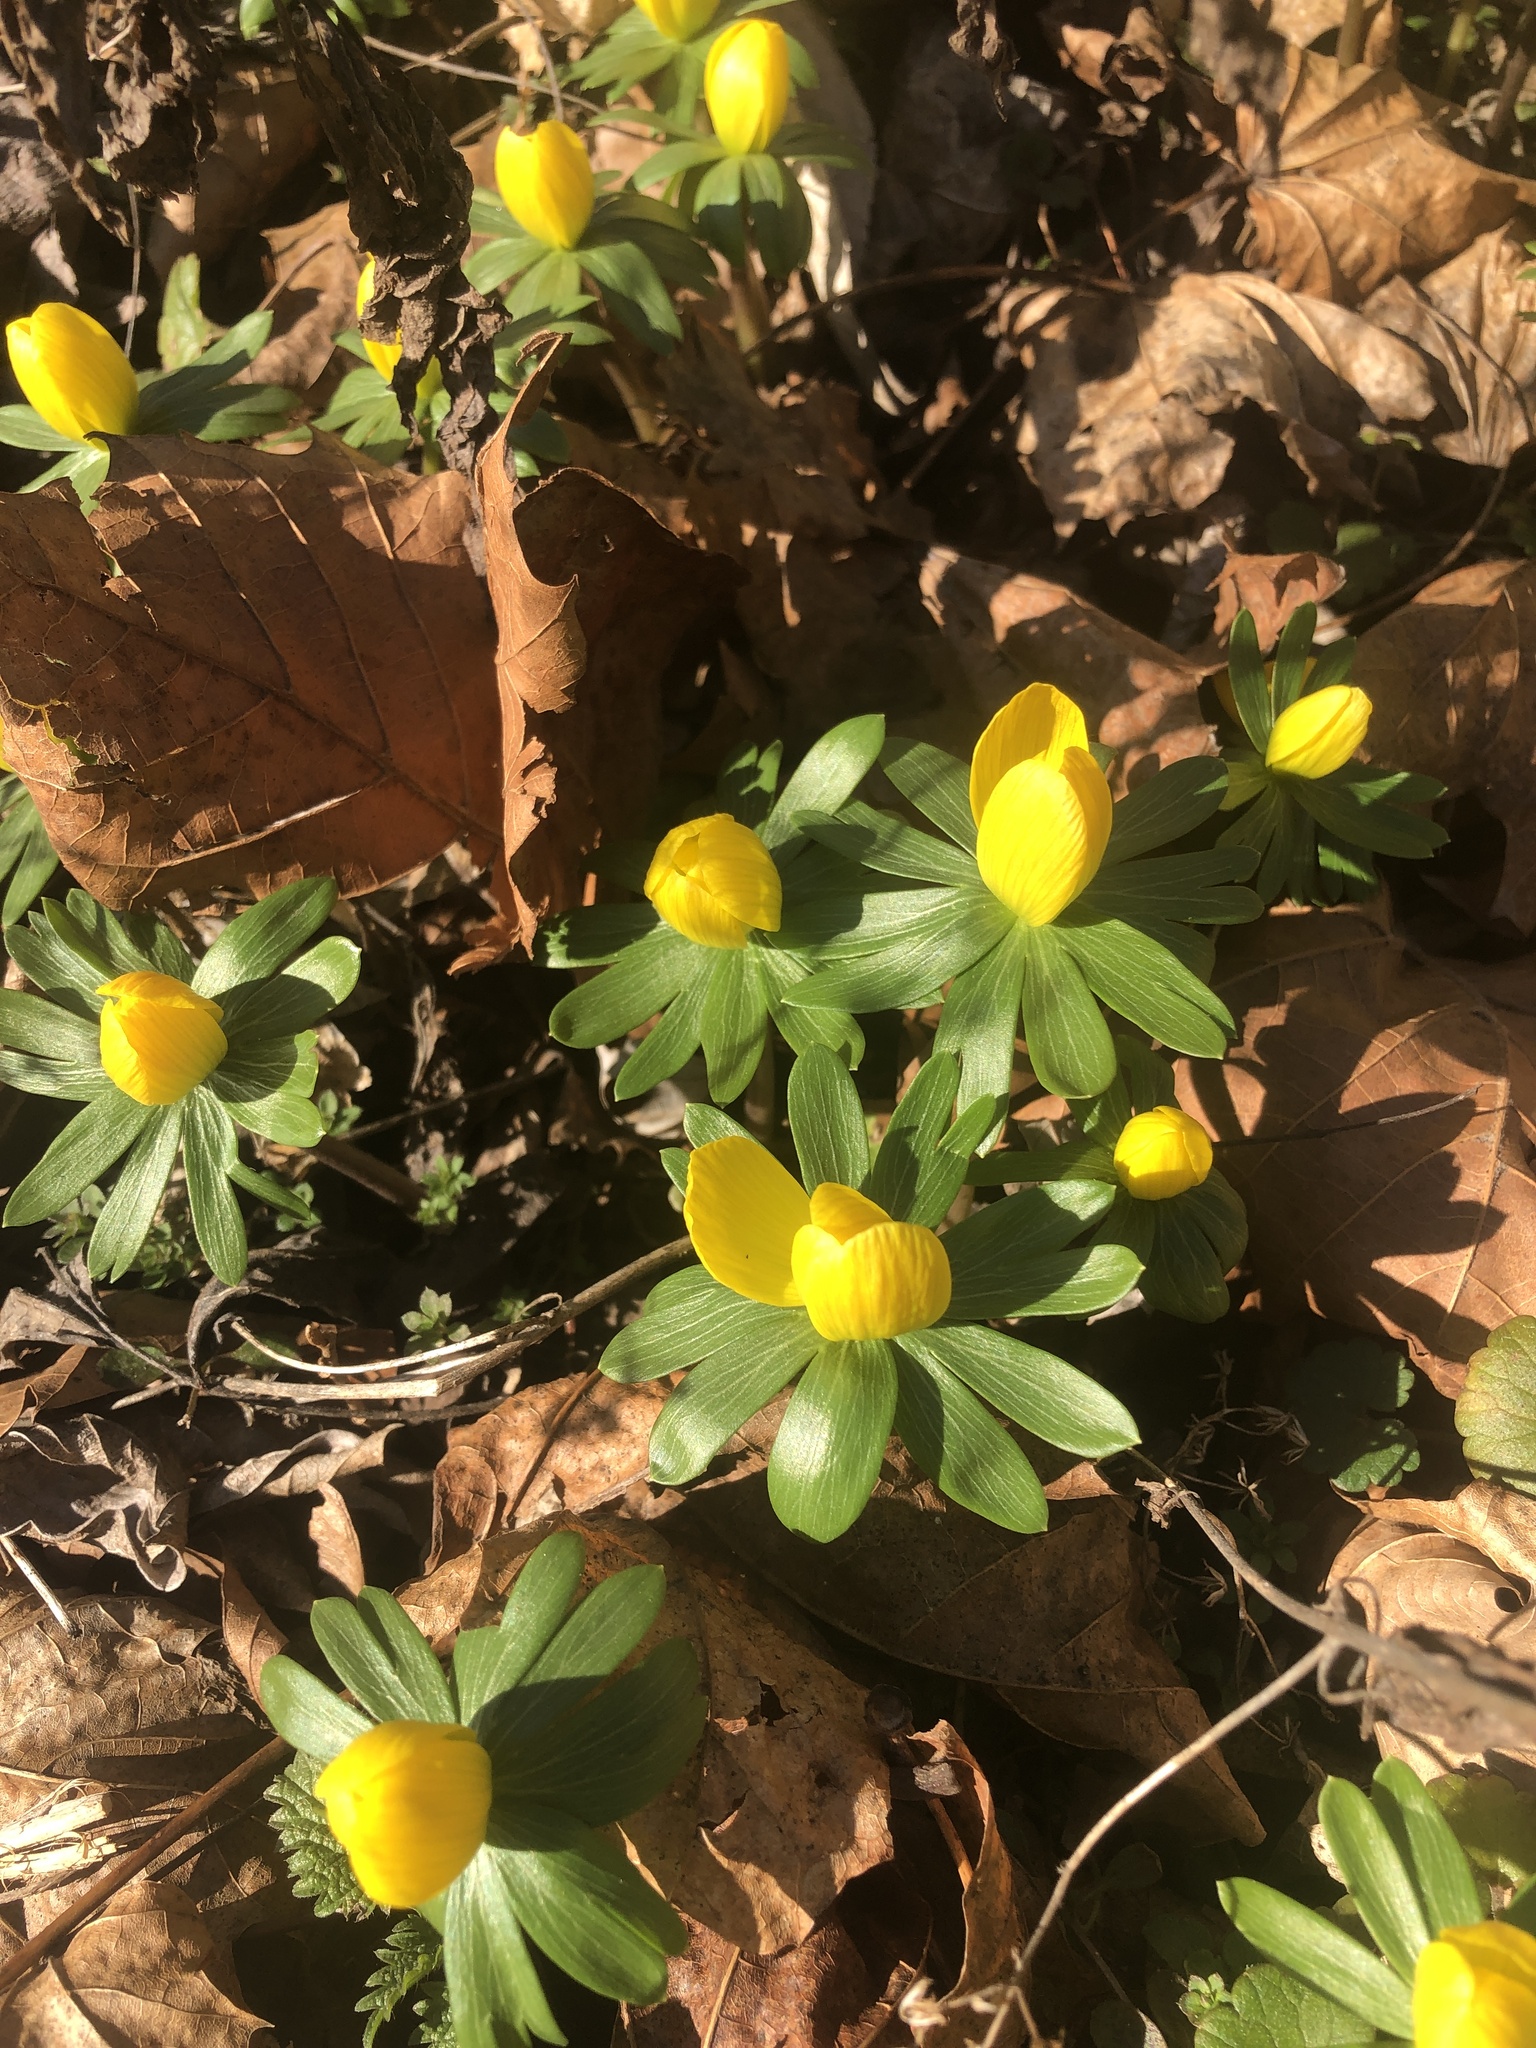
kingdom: Plantae
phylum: Tracheophyta
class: Magnoliopsida
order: Ranunculales
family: Ranunculaceae
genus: Eranthis
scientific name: Eranthis hyemalis
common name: Winter aconite
